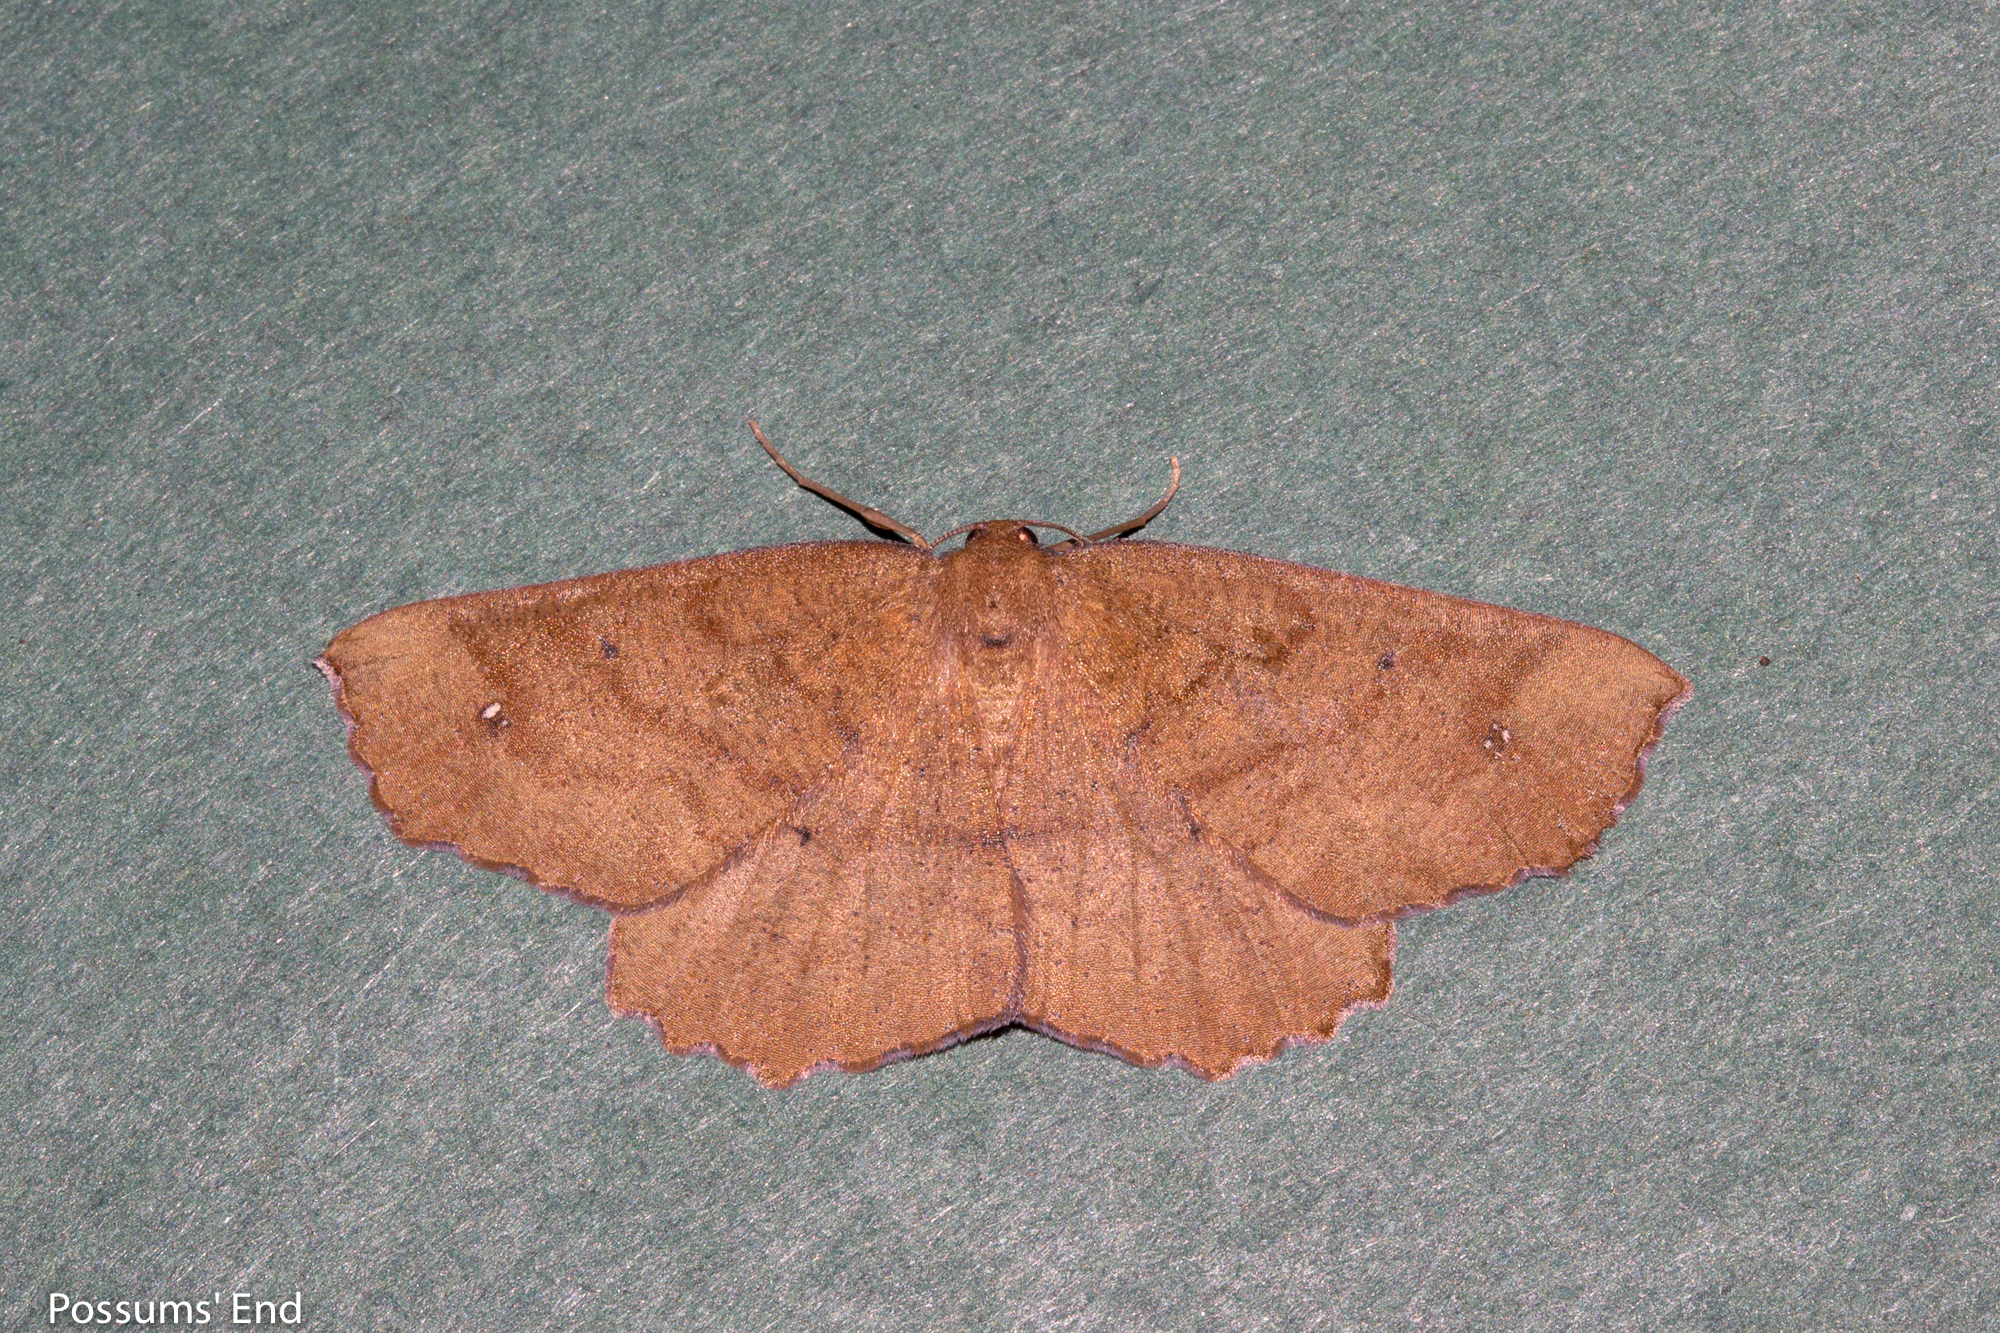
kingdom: Animalia
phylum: Arthropoda
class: Insecta
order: Lepidoptera
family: Geometridae
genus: Xyridacma
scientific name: Xyridacma ustaria
